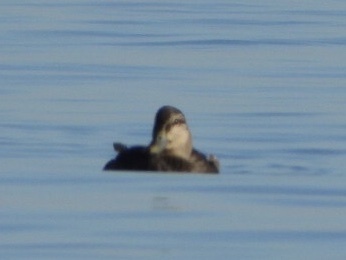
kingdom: Animalia
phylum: Chordata
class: Aves
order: Anseriformes
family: Anatidae
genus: Anas
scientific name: Anas rubripes
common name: American black duck
